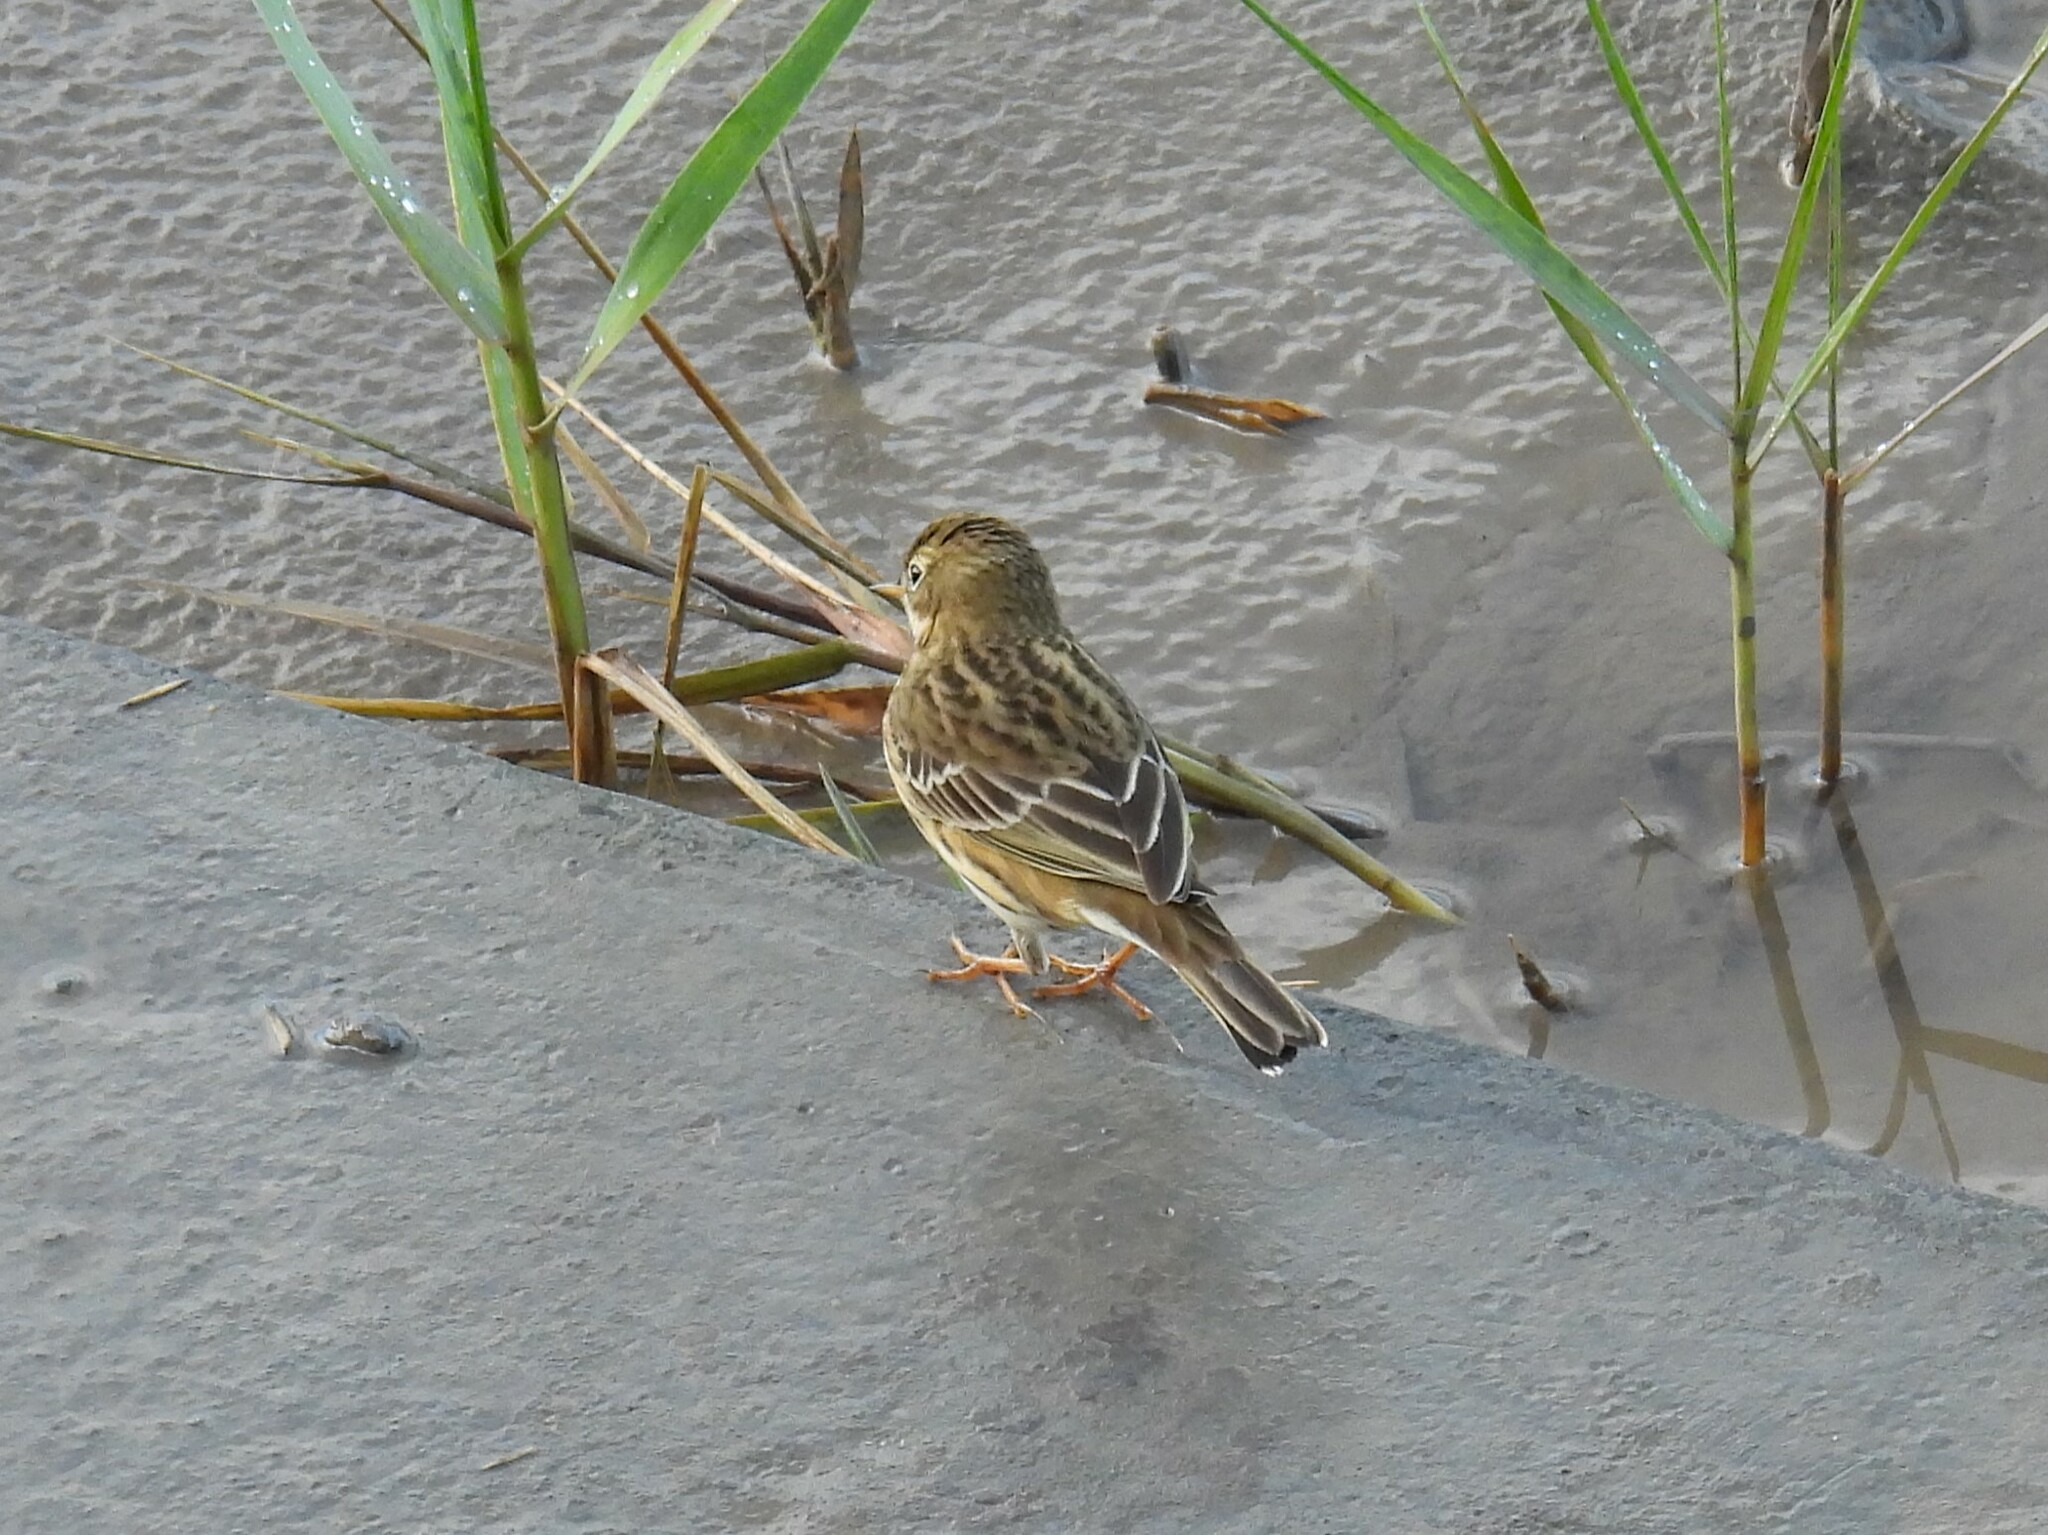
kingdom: Animalia
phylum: Chordata
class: Aves
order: Passeriformes
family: Motacillidae
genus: Anthus
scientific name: Anthus pratensis
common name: Meadow pipit
